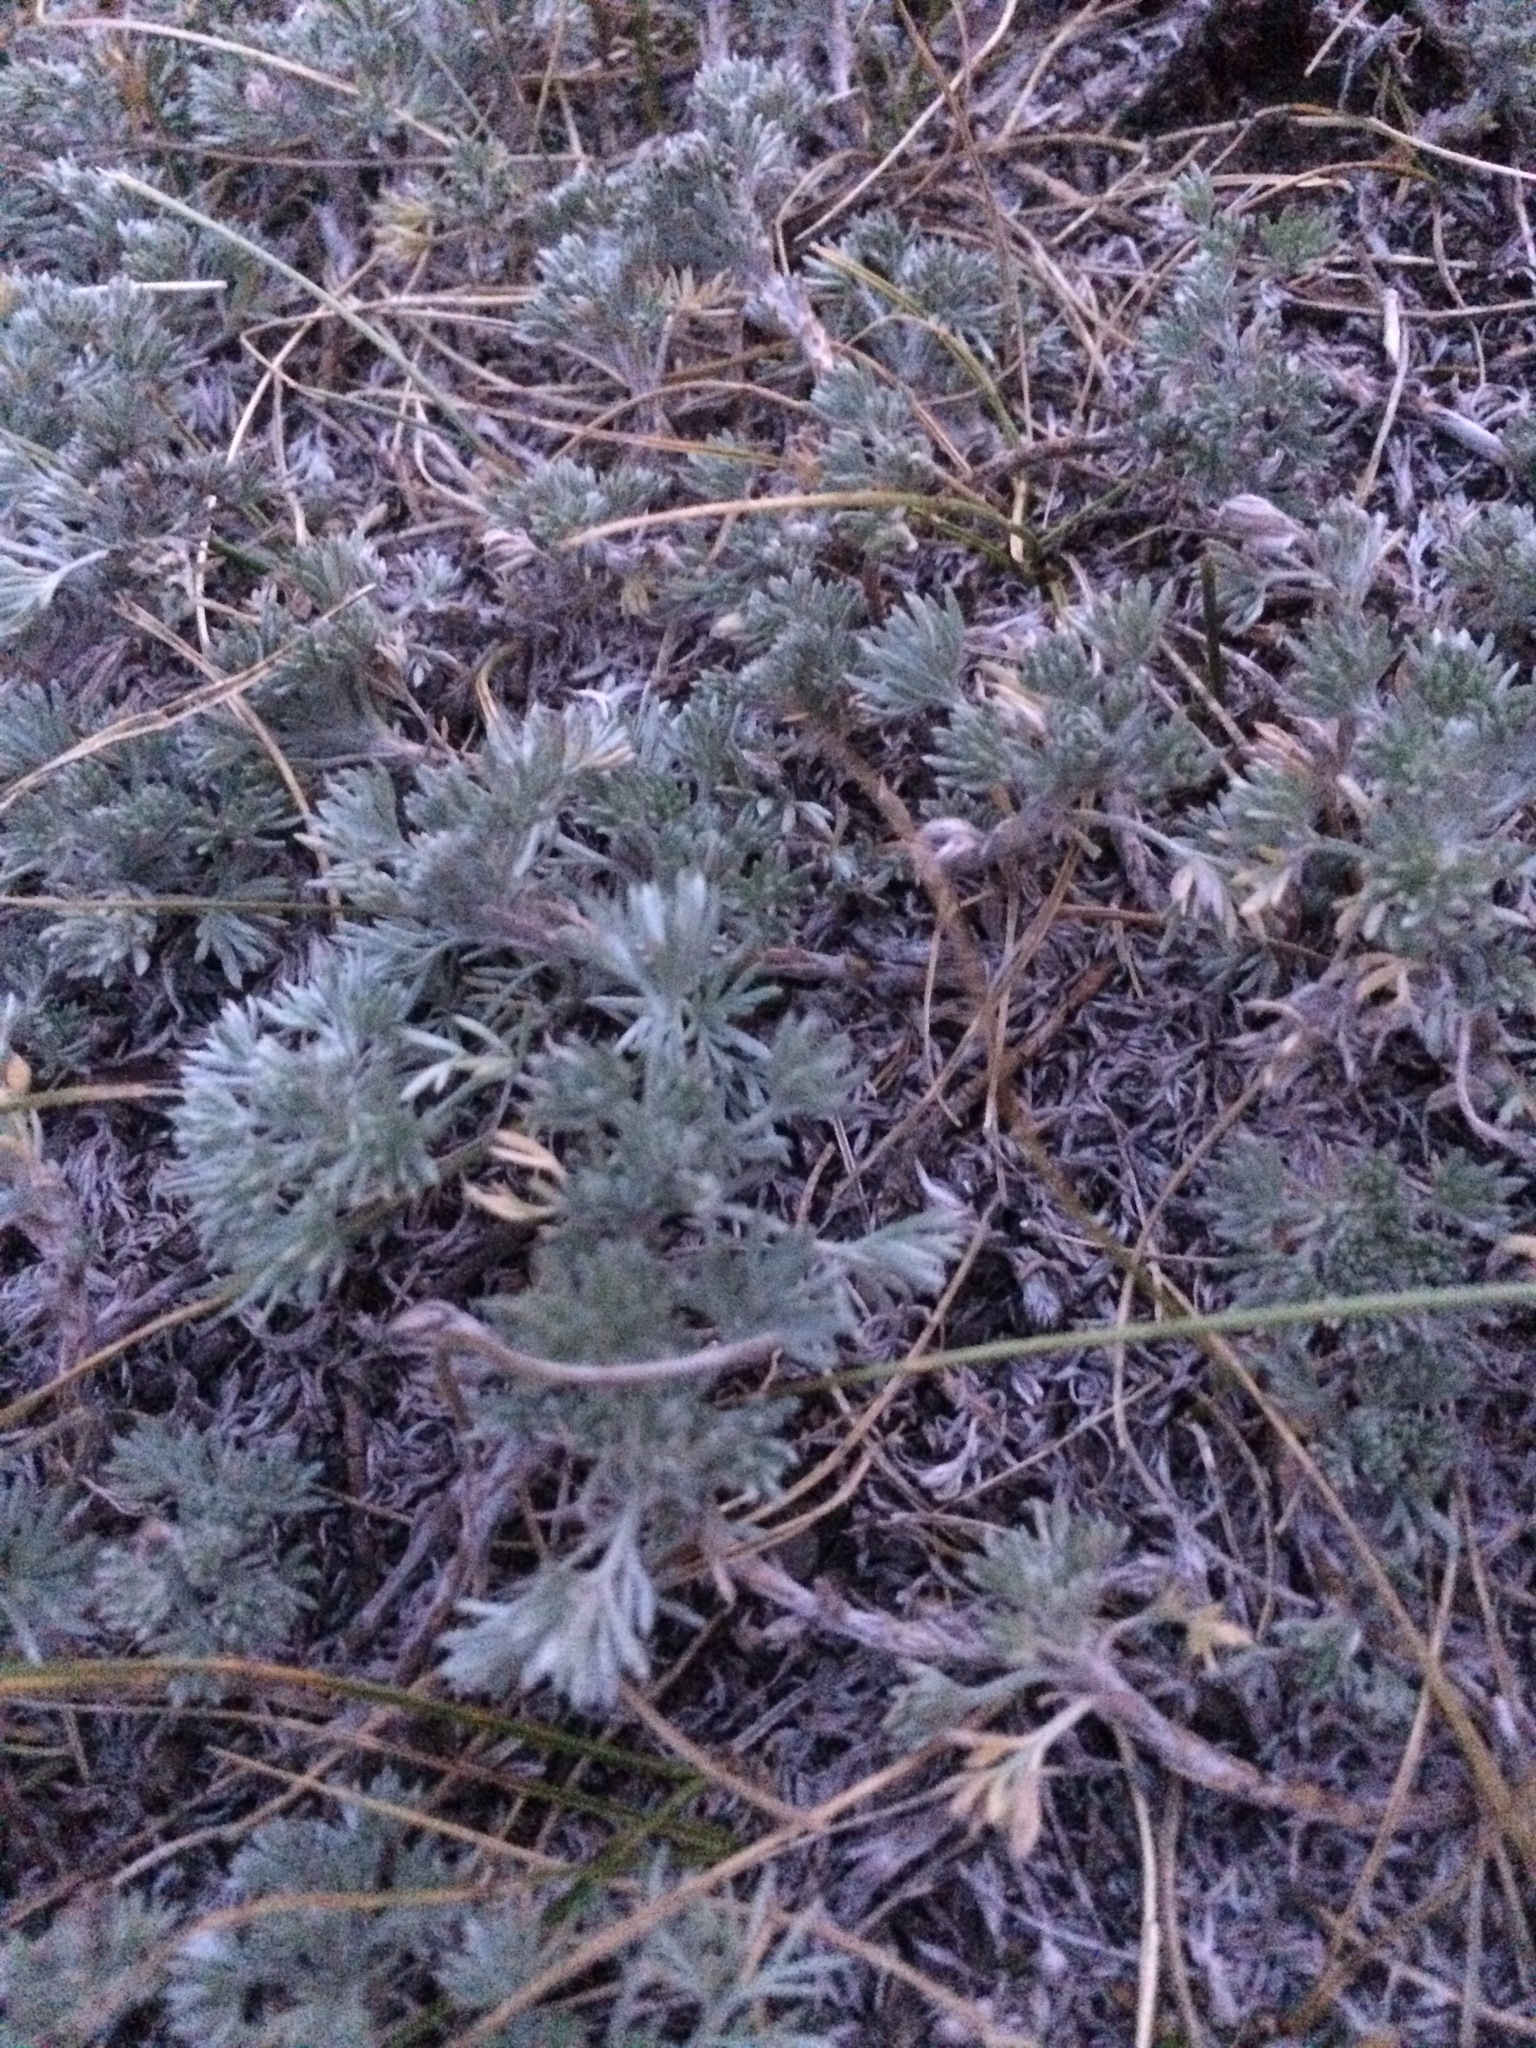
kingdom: Plantae
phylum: Tracheophyta
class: Magnoliopsida
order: Asterales
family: Asteraceae
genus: Artemisia
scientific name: Artemisia frigida
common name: Prairie sagewort
